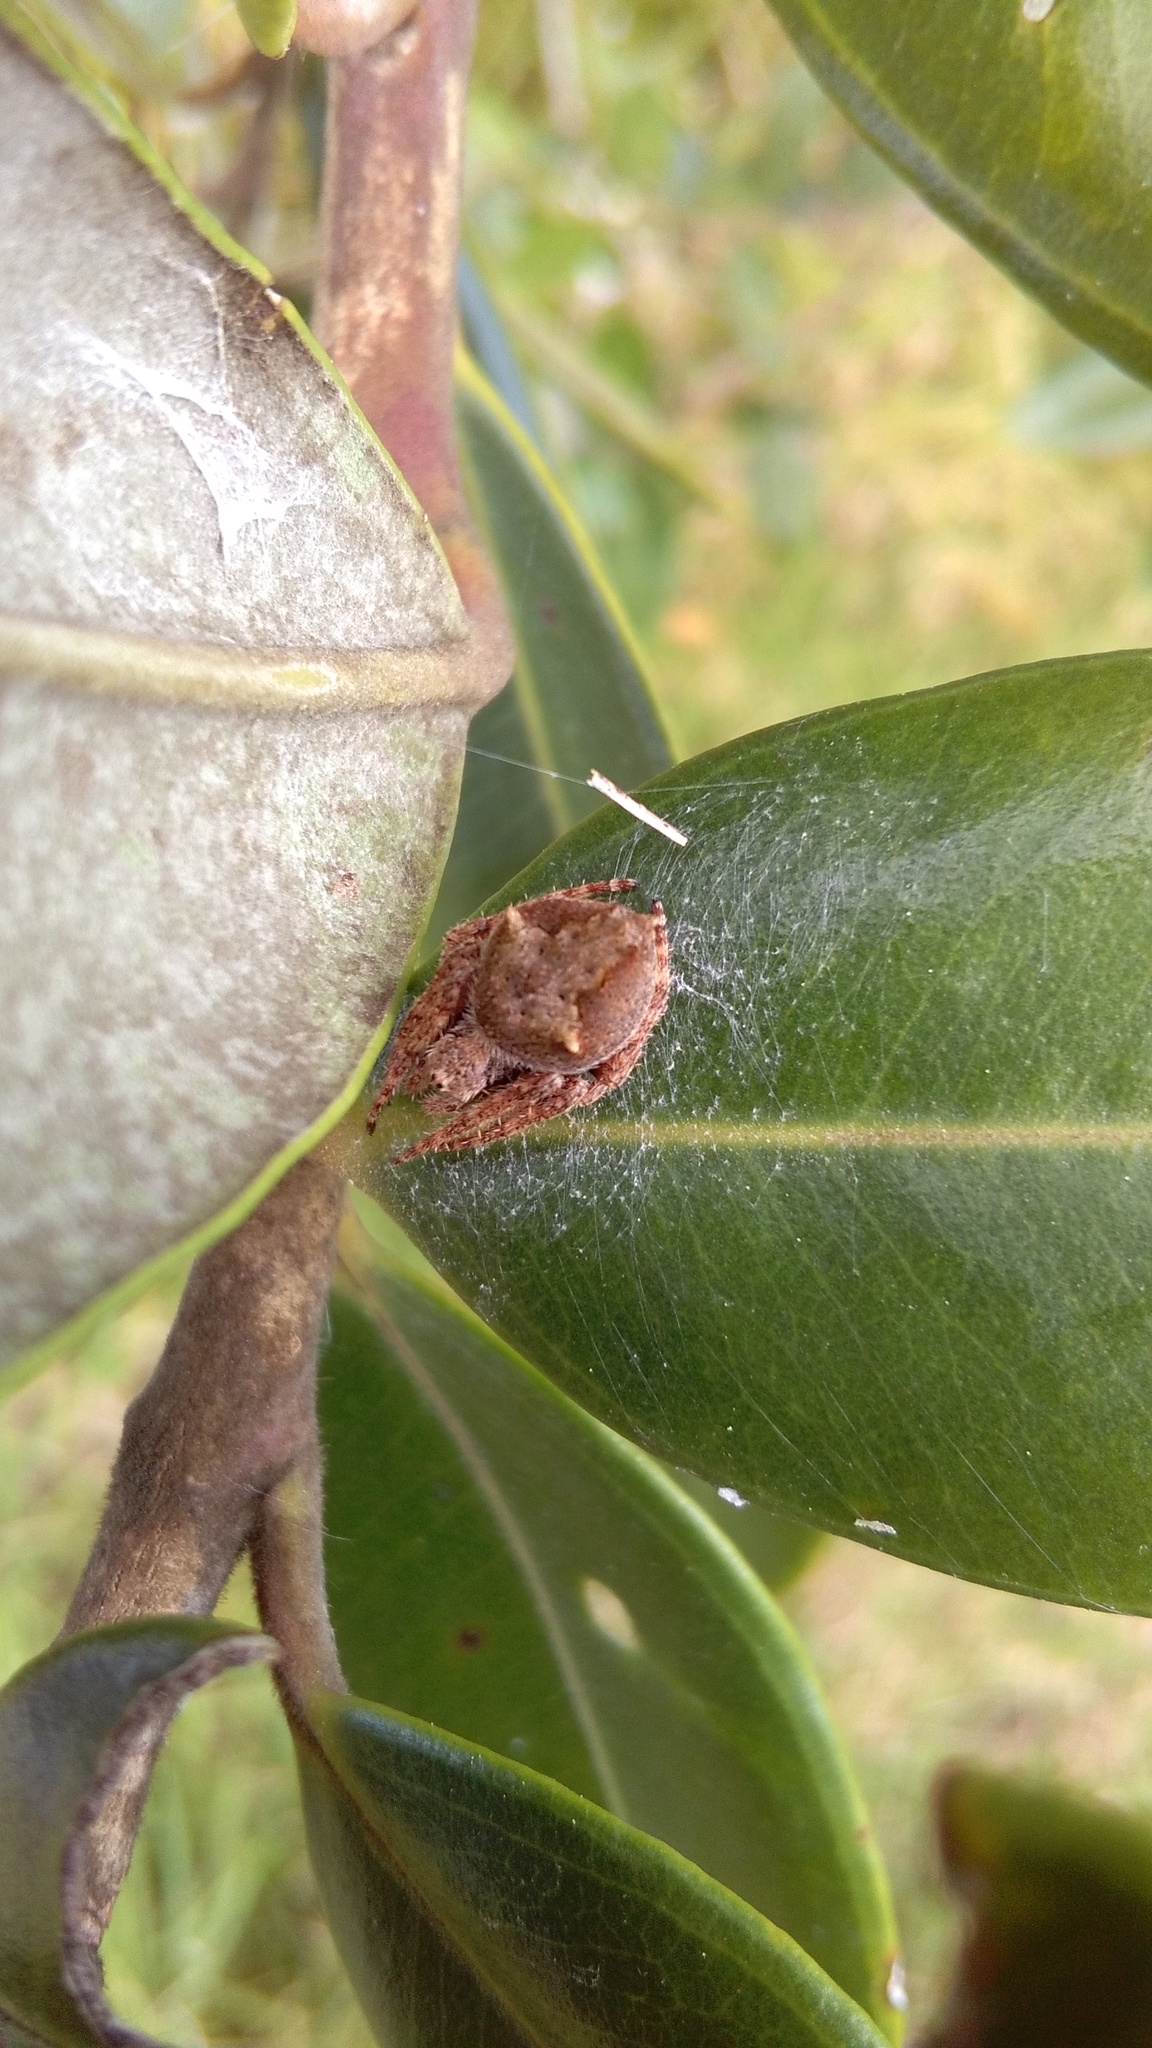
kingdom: Animalia
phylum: Arthropoda
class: Arachnida
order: Araneae
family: Araneidae
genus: Eriophora
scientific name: Eriophora pustulosa
